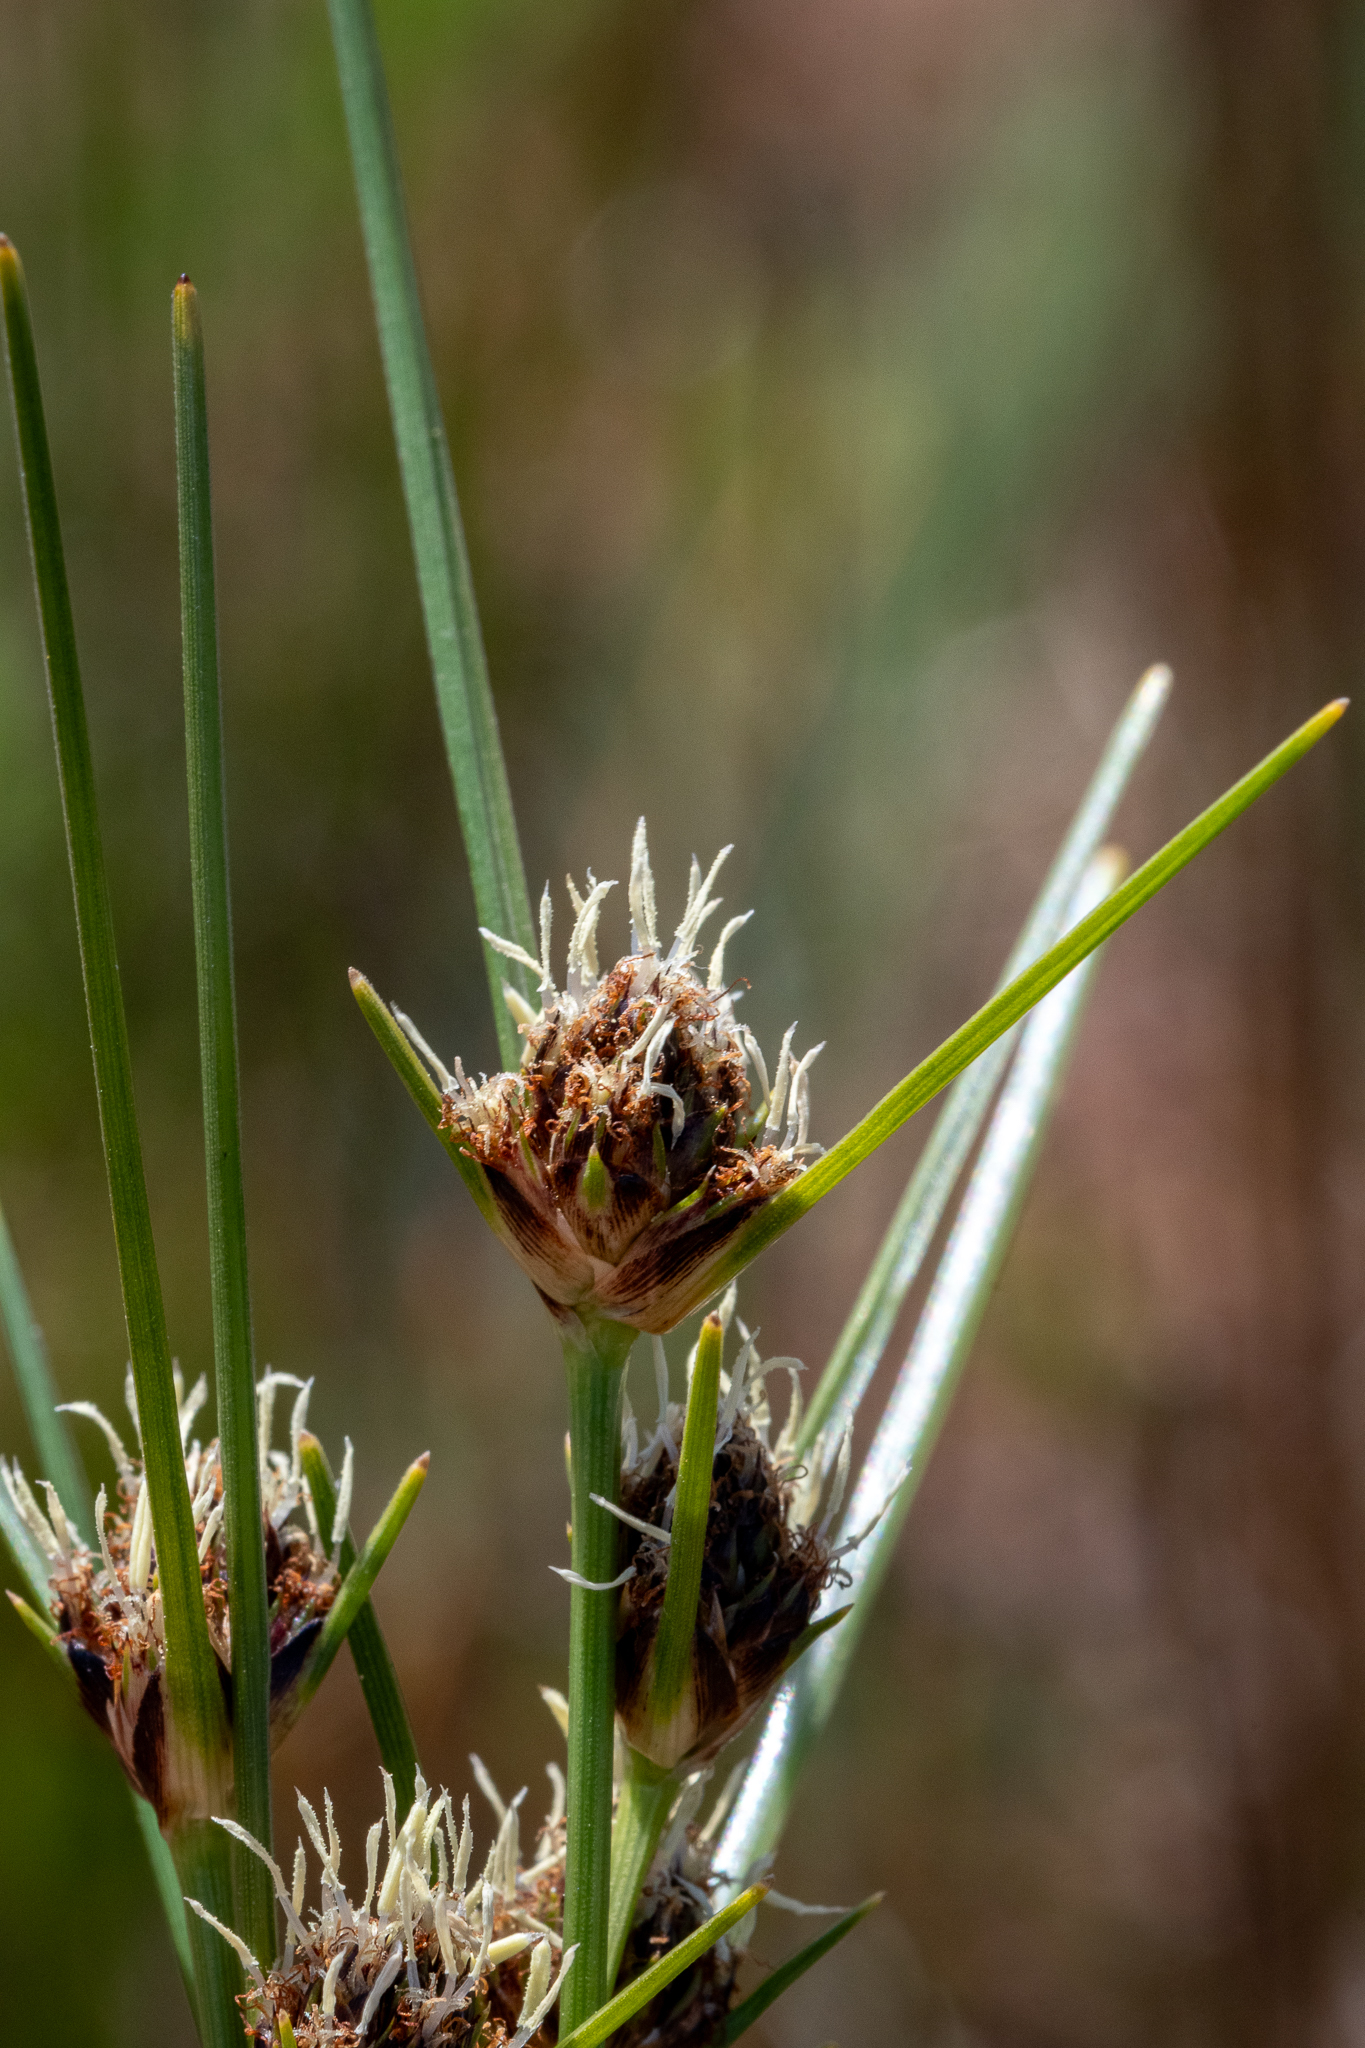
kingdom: Plantae
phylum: Tracheophyta
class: Liliopsida
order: Poales
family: Cyperaceae
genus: Ficinia
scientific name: Ficinia indica
